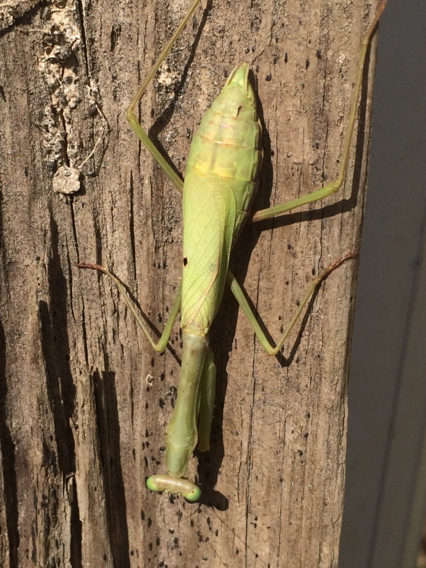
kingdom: Animalia
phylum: Arthropoda
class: Insecta
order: Mantodea
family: Mantidae
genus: Stagmomantis
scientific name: Stagmomantis carolina
